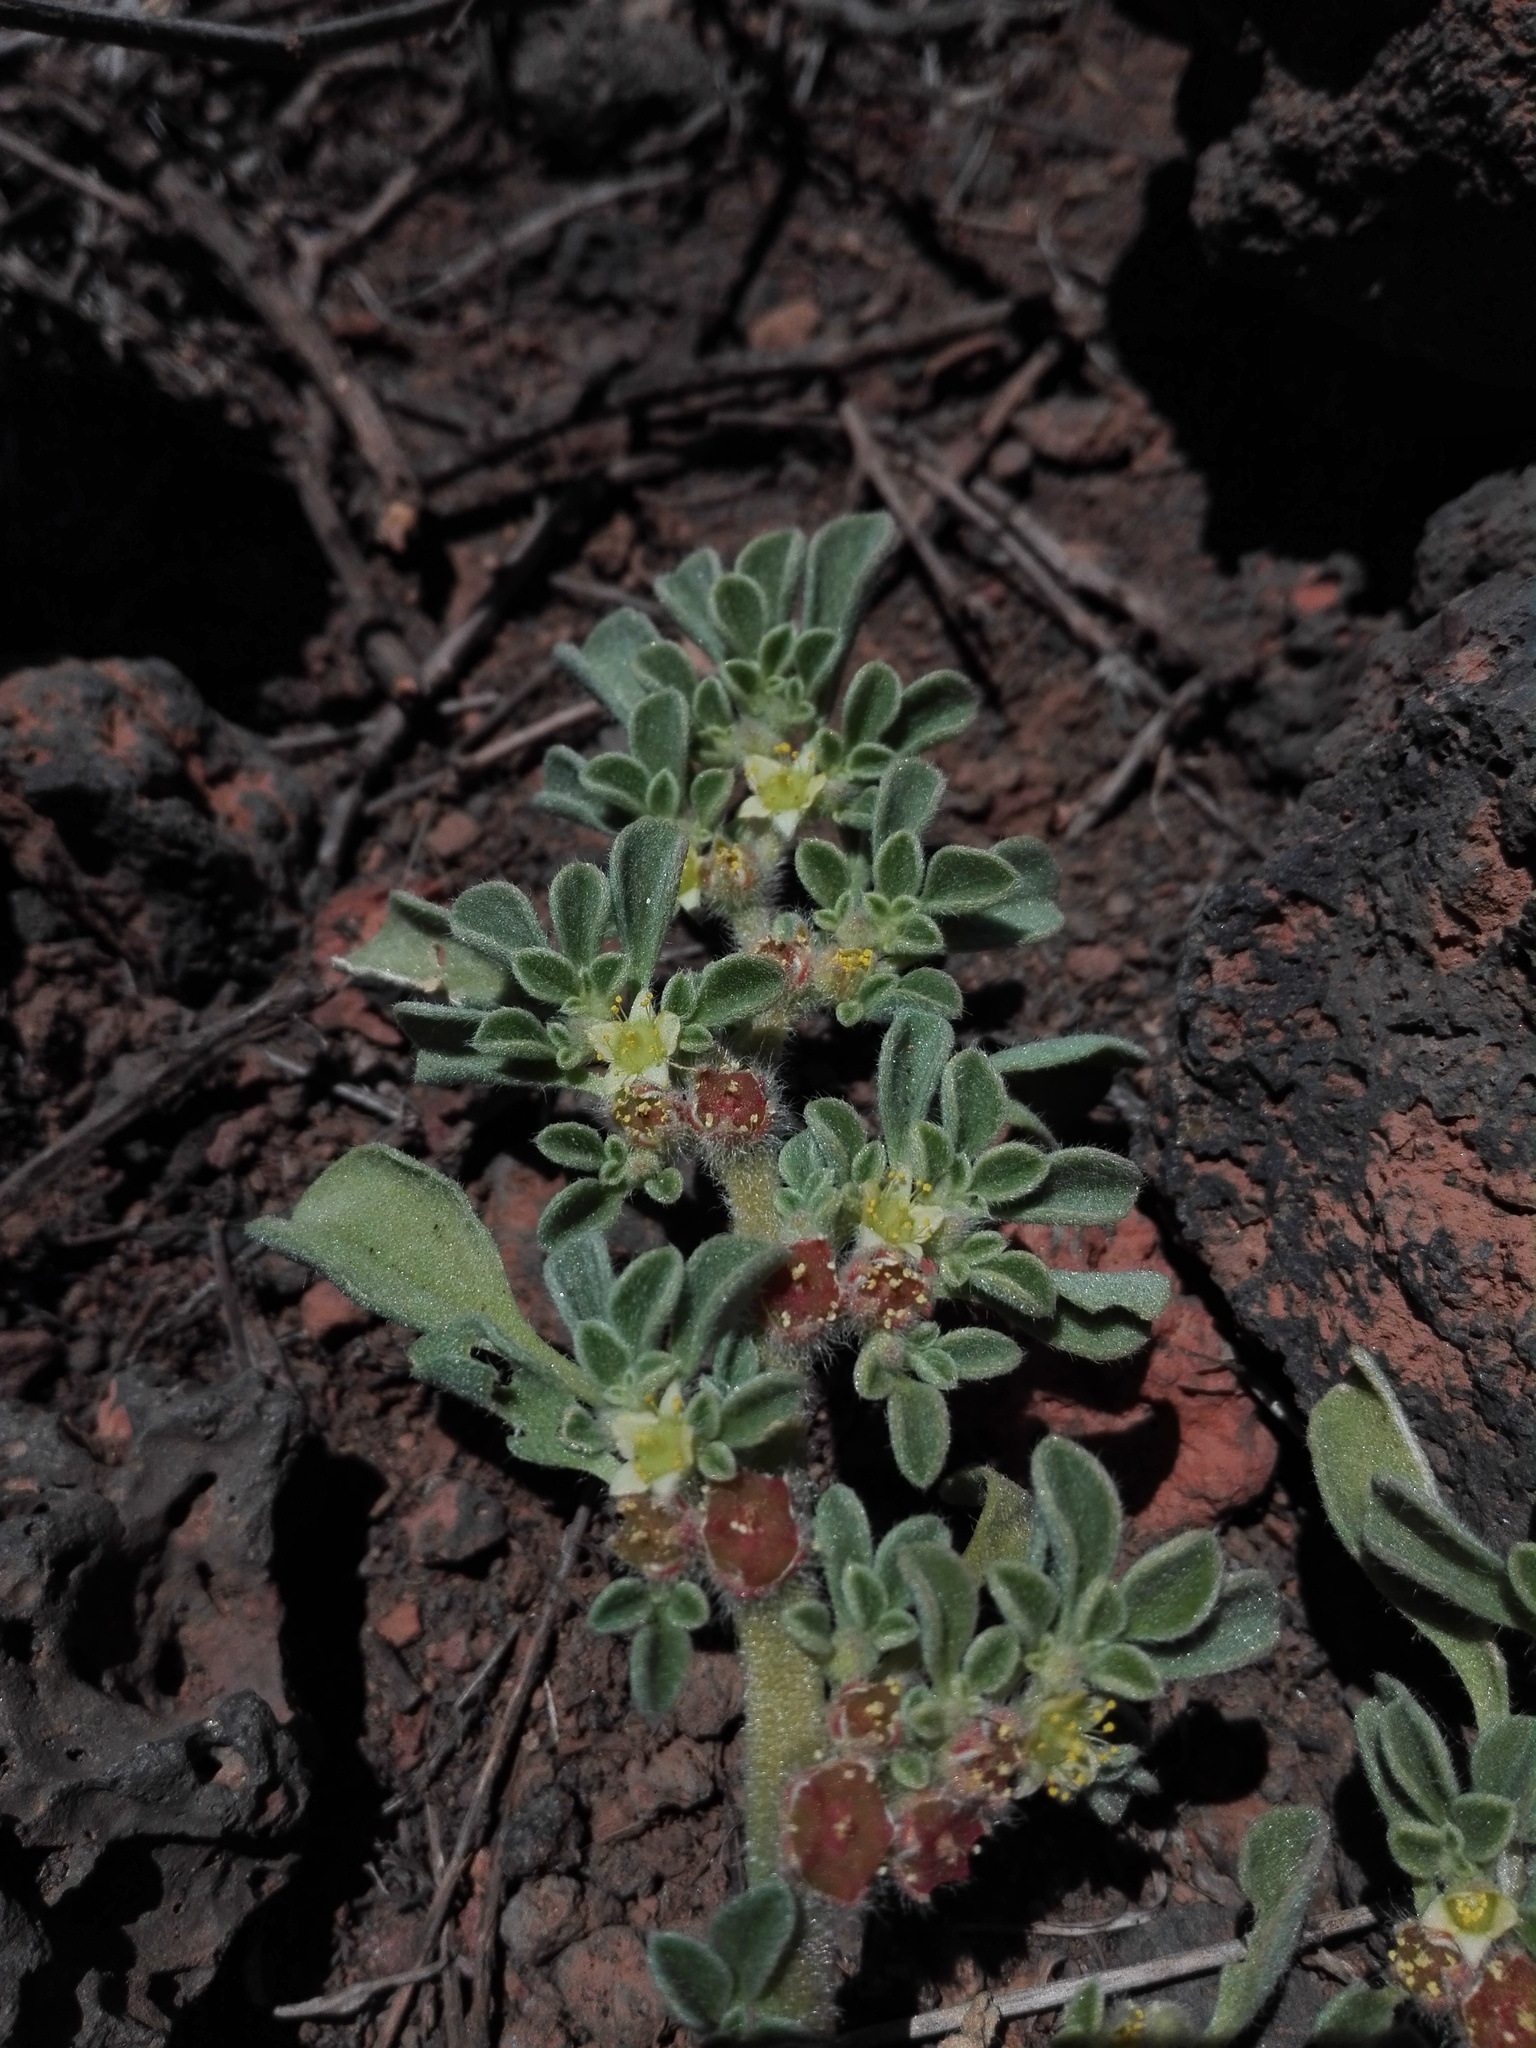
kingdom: Plantae
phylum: Tracheophyta
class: Magnoliopsida
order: Caryophyllales
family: Aizoaceae
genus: Aizoon
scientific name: Aizoon canariense
